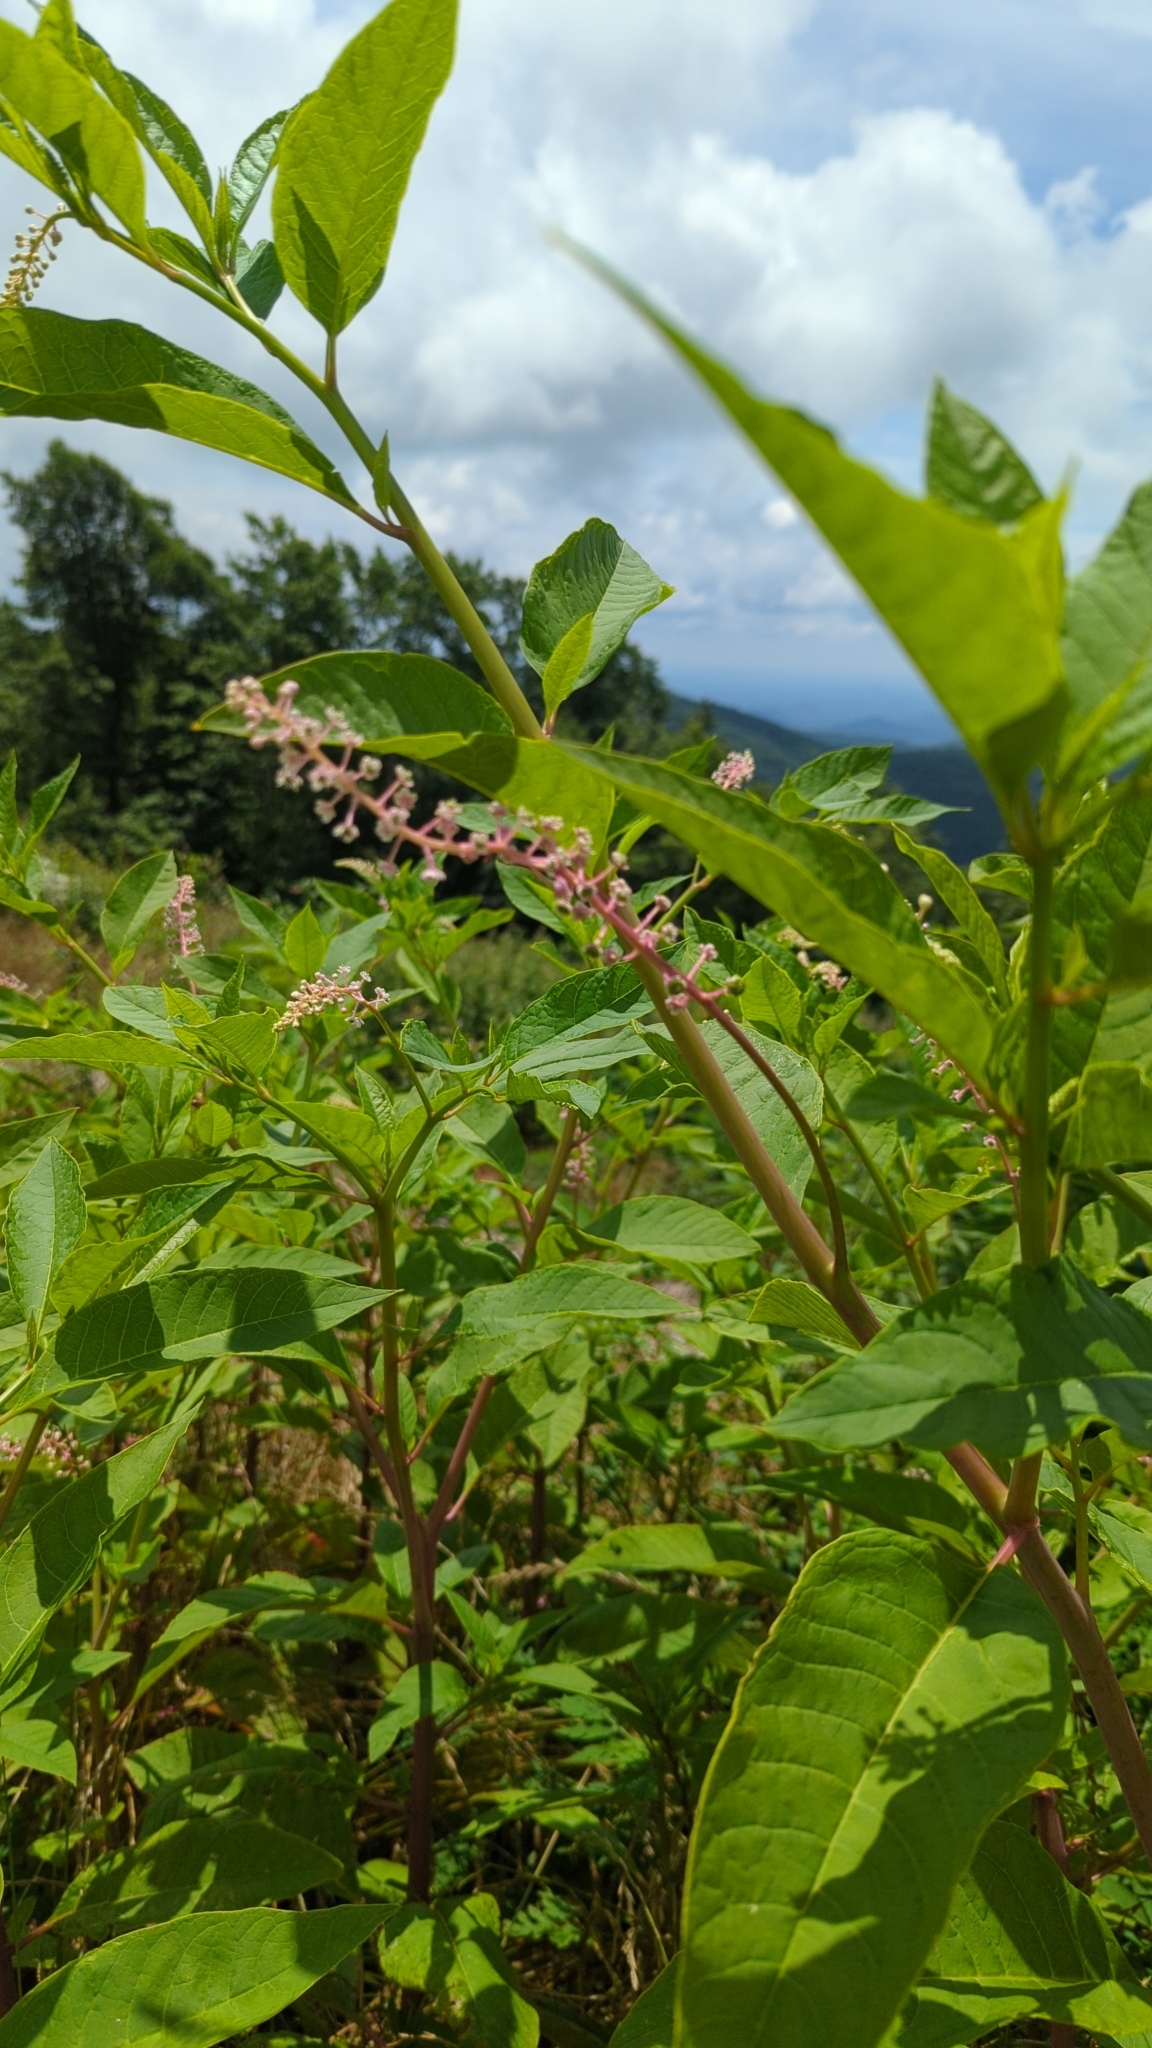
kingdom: Plantae
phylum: Tracheophyta
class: Magnoliopsida
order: Caryophyllales
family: Phytolaccaceae
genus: Phytolacca
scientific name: Phytolacca americana
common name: American pokeweed
